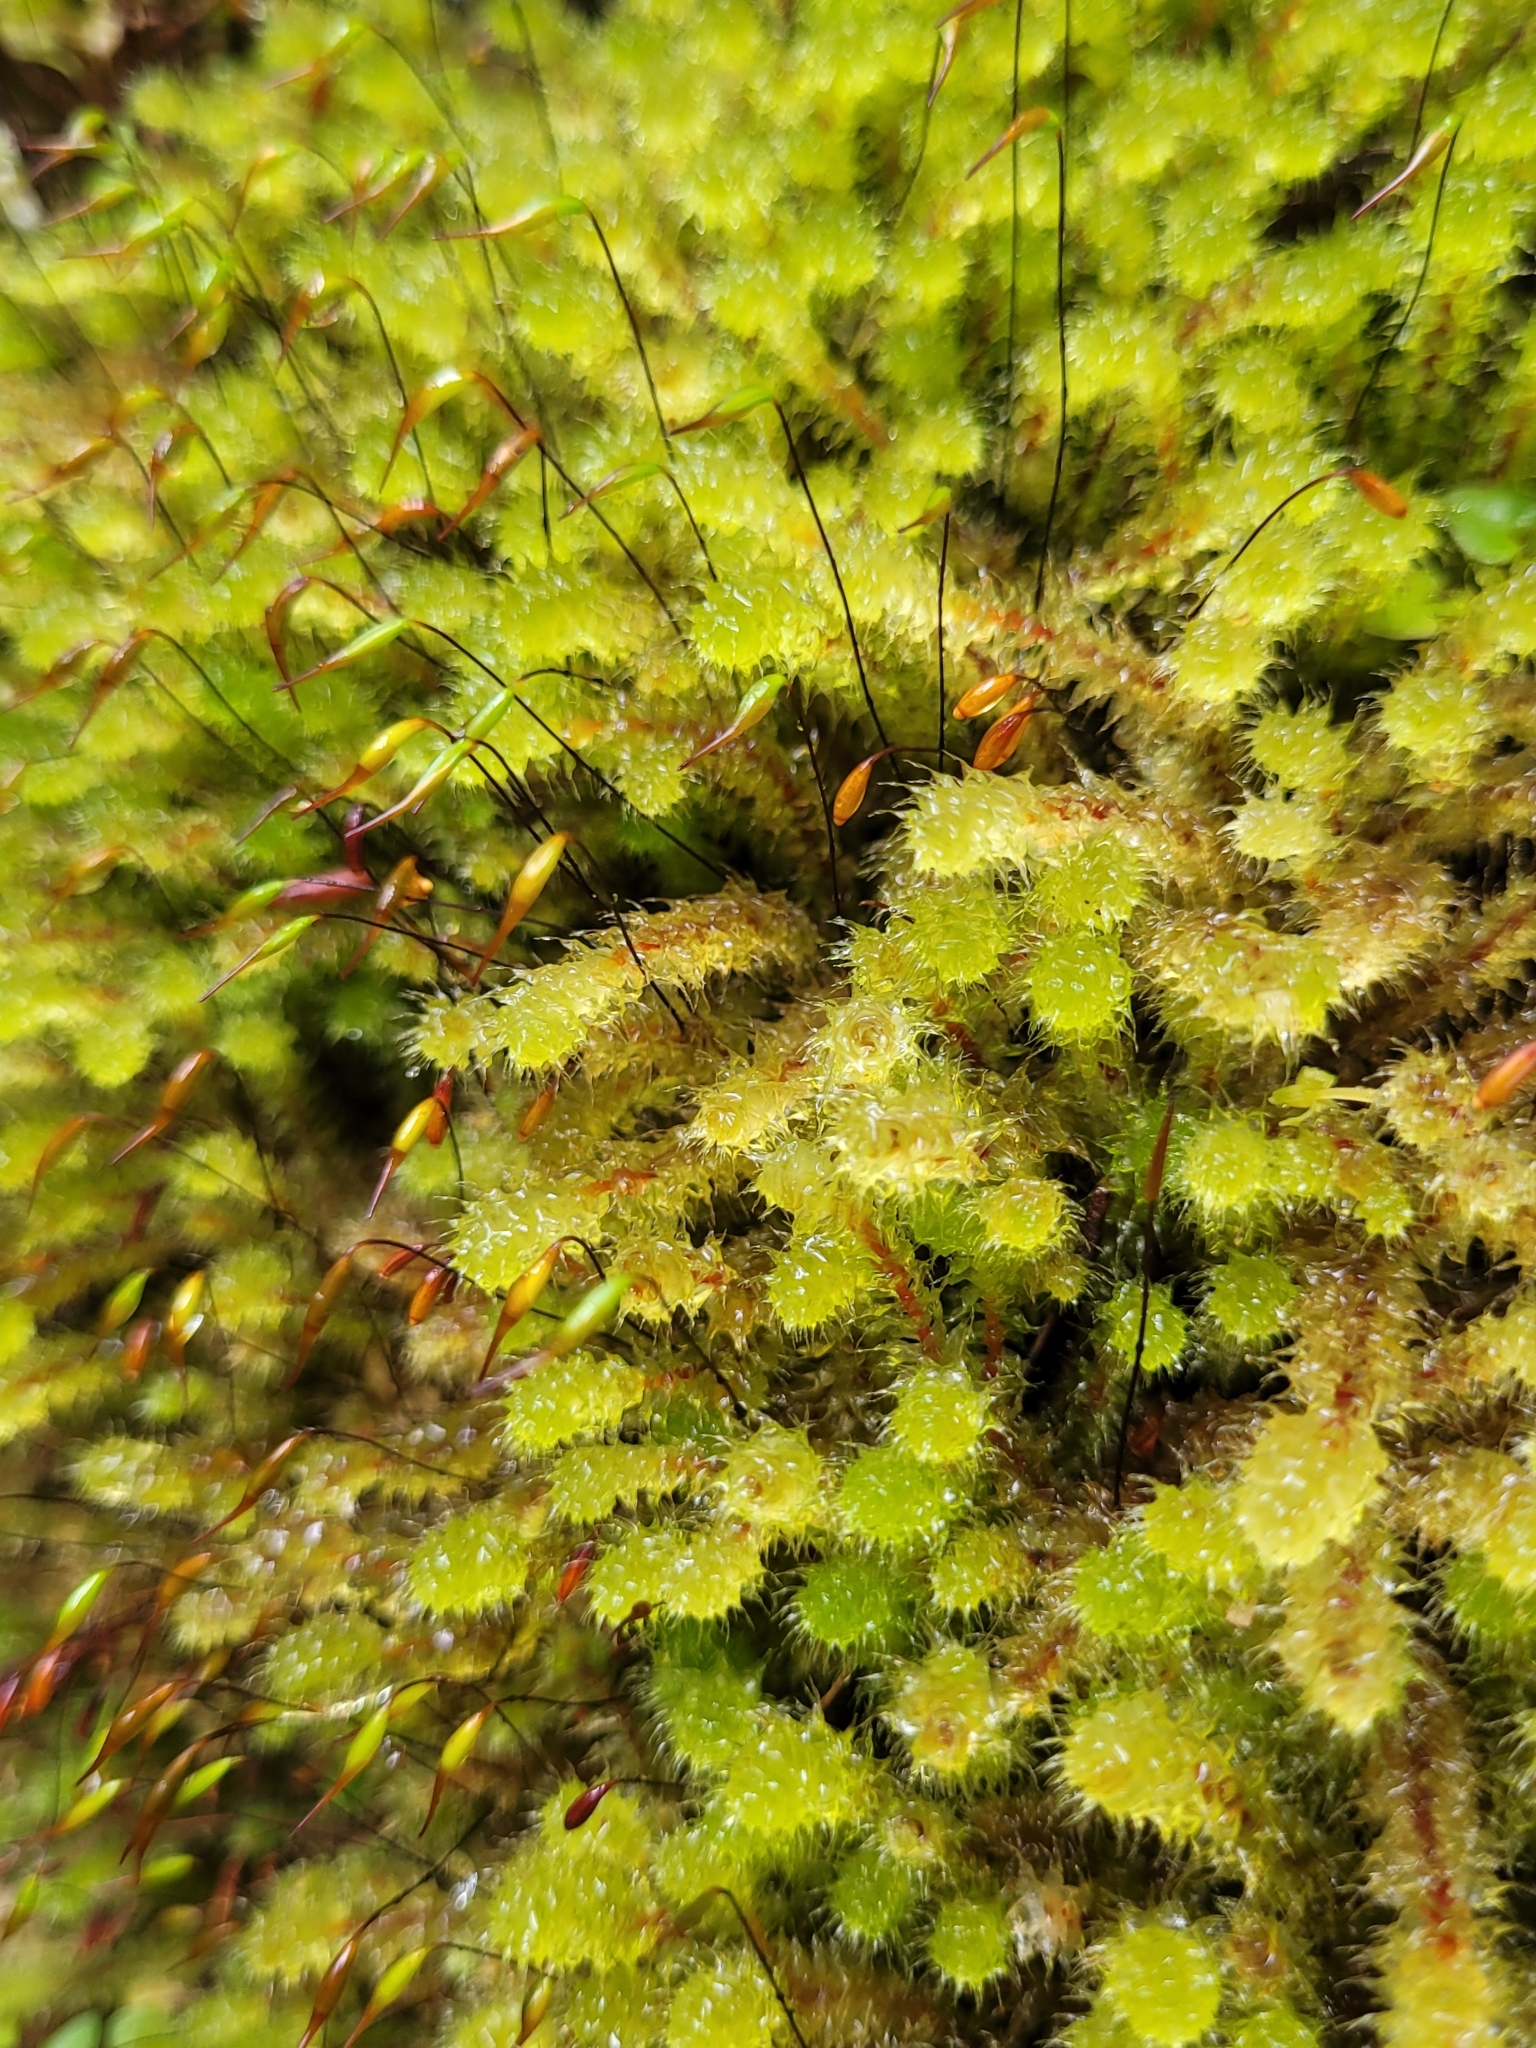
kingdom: Plantae
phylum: Bryophyta
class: Bryopsida
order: Ptychomniales
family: Ptychomniaceae
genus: Ptychomnion
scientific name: Ptychomnion aciculare
